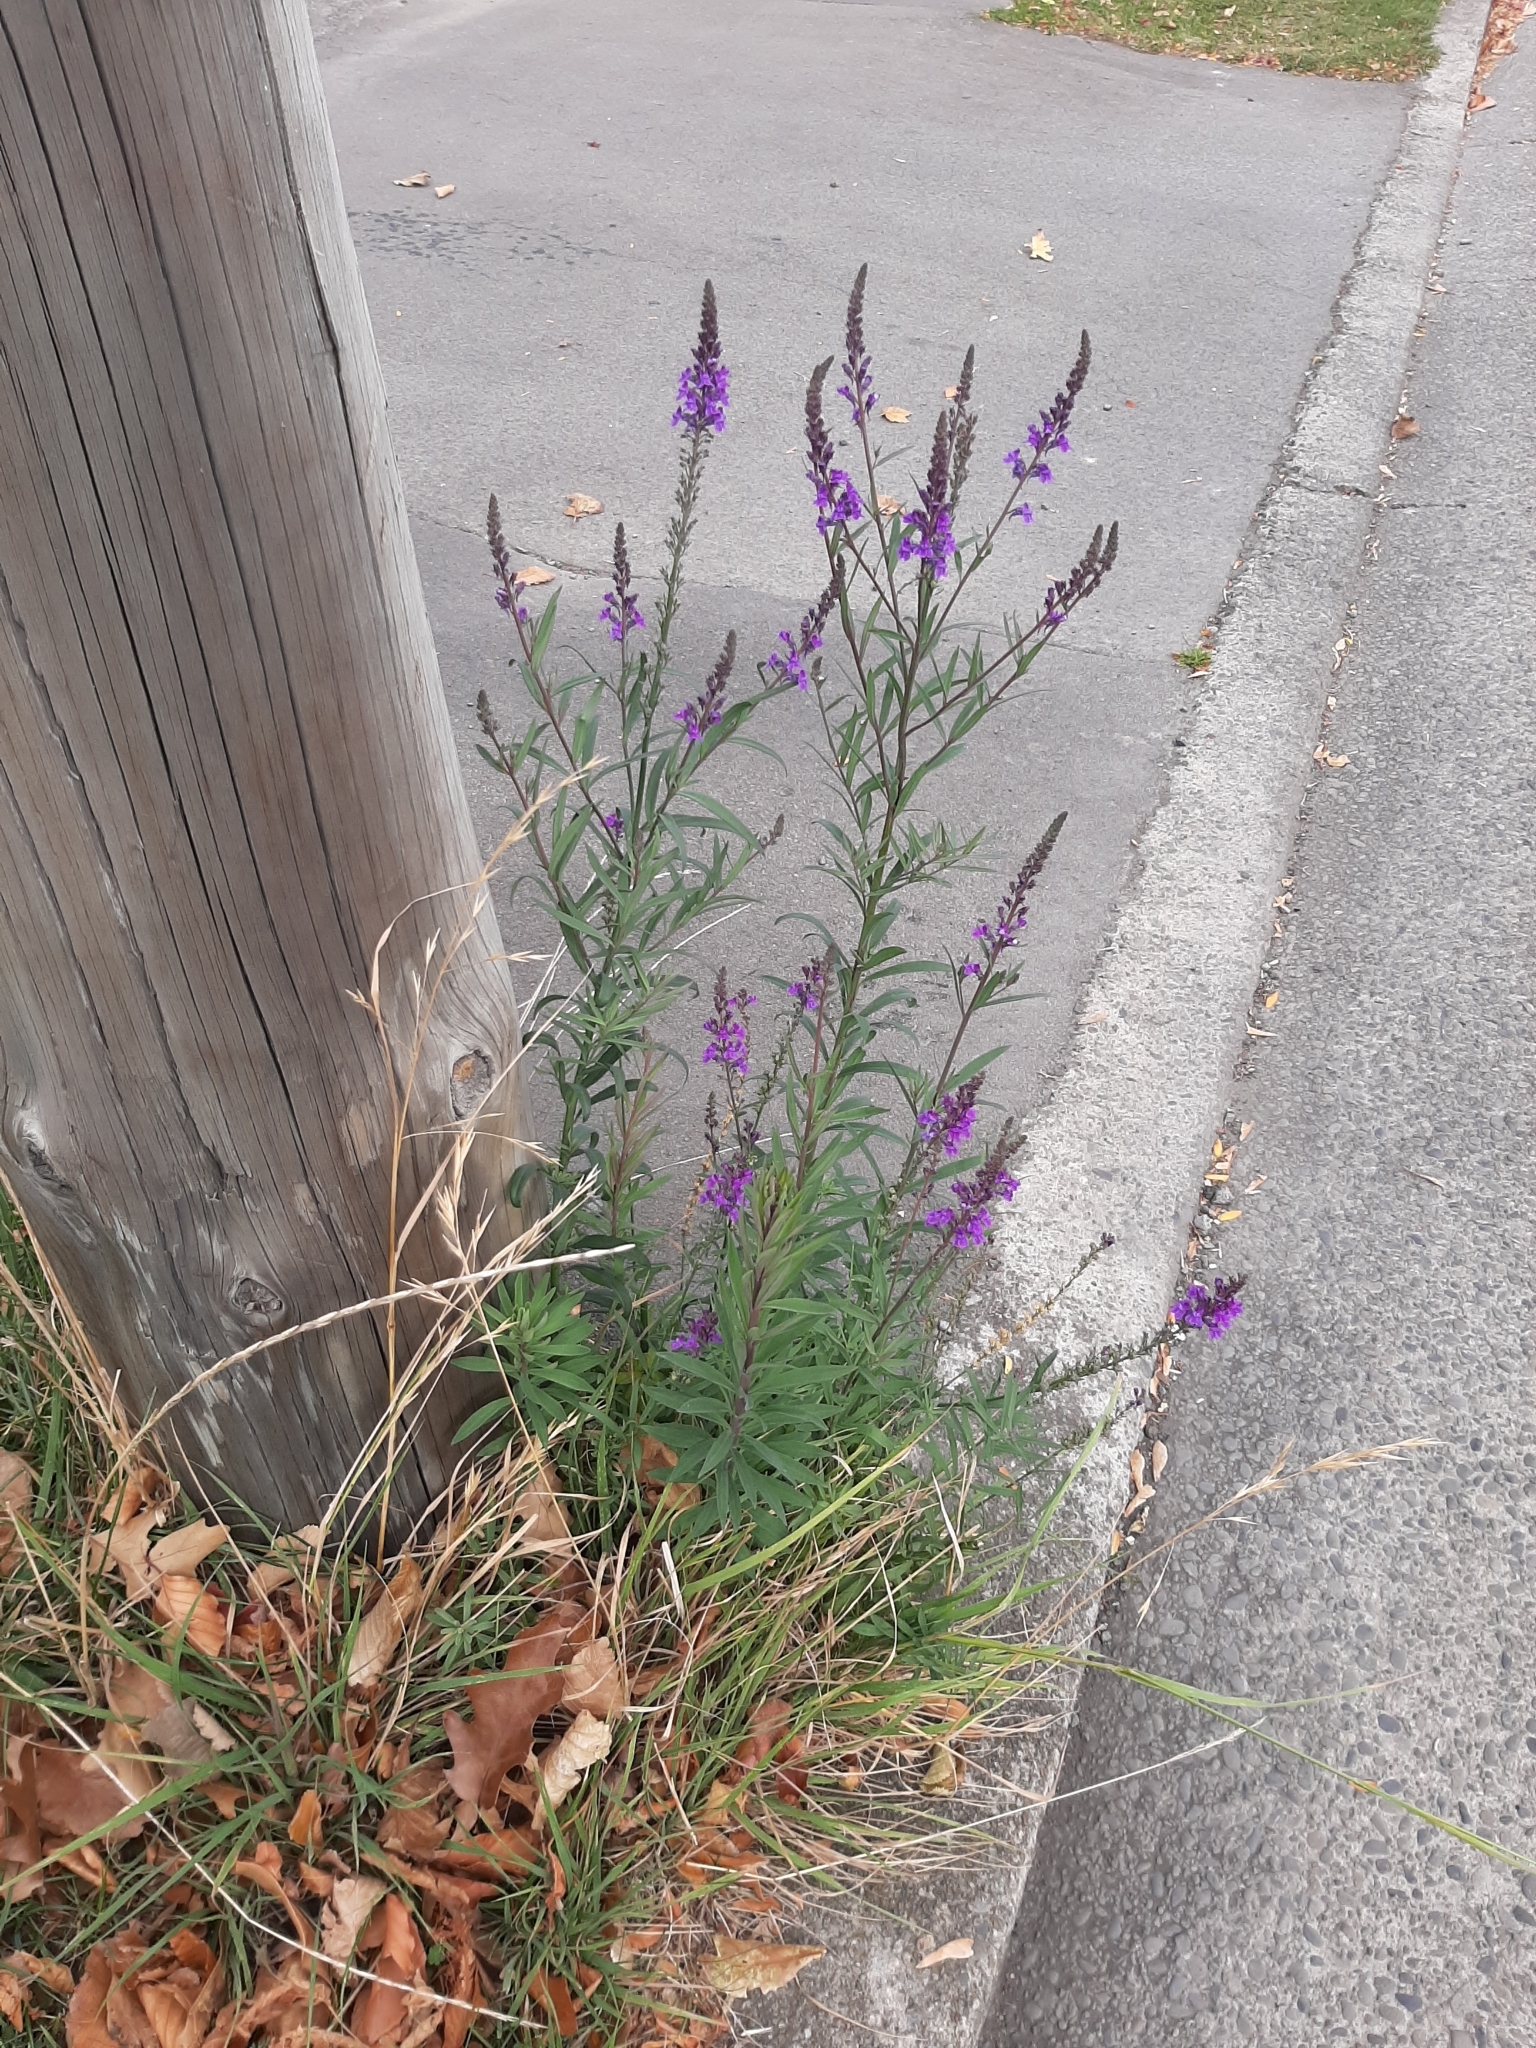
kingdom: Plantae
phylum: Tracheophyta
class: Magnoliopsida
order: Lamiales
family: Plantaginaceae
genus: Linaria
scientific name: Linaria purpurea
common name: Purple toadflax
